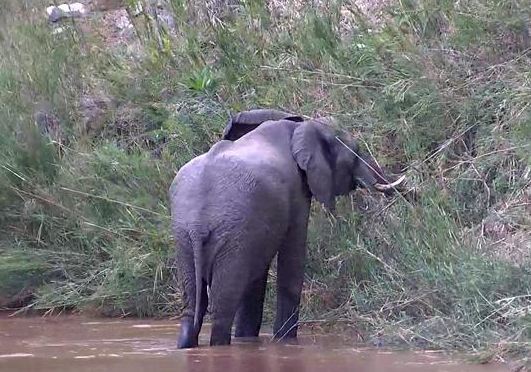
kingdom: Animalia
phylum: Chordata
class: Mammalia
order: Proboscidea
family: Elephantidae
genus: Loxodonta
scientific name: Loxodonta africana
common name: African elephant
